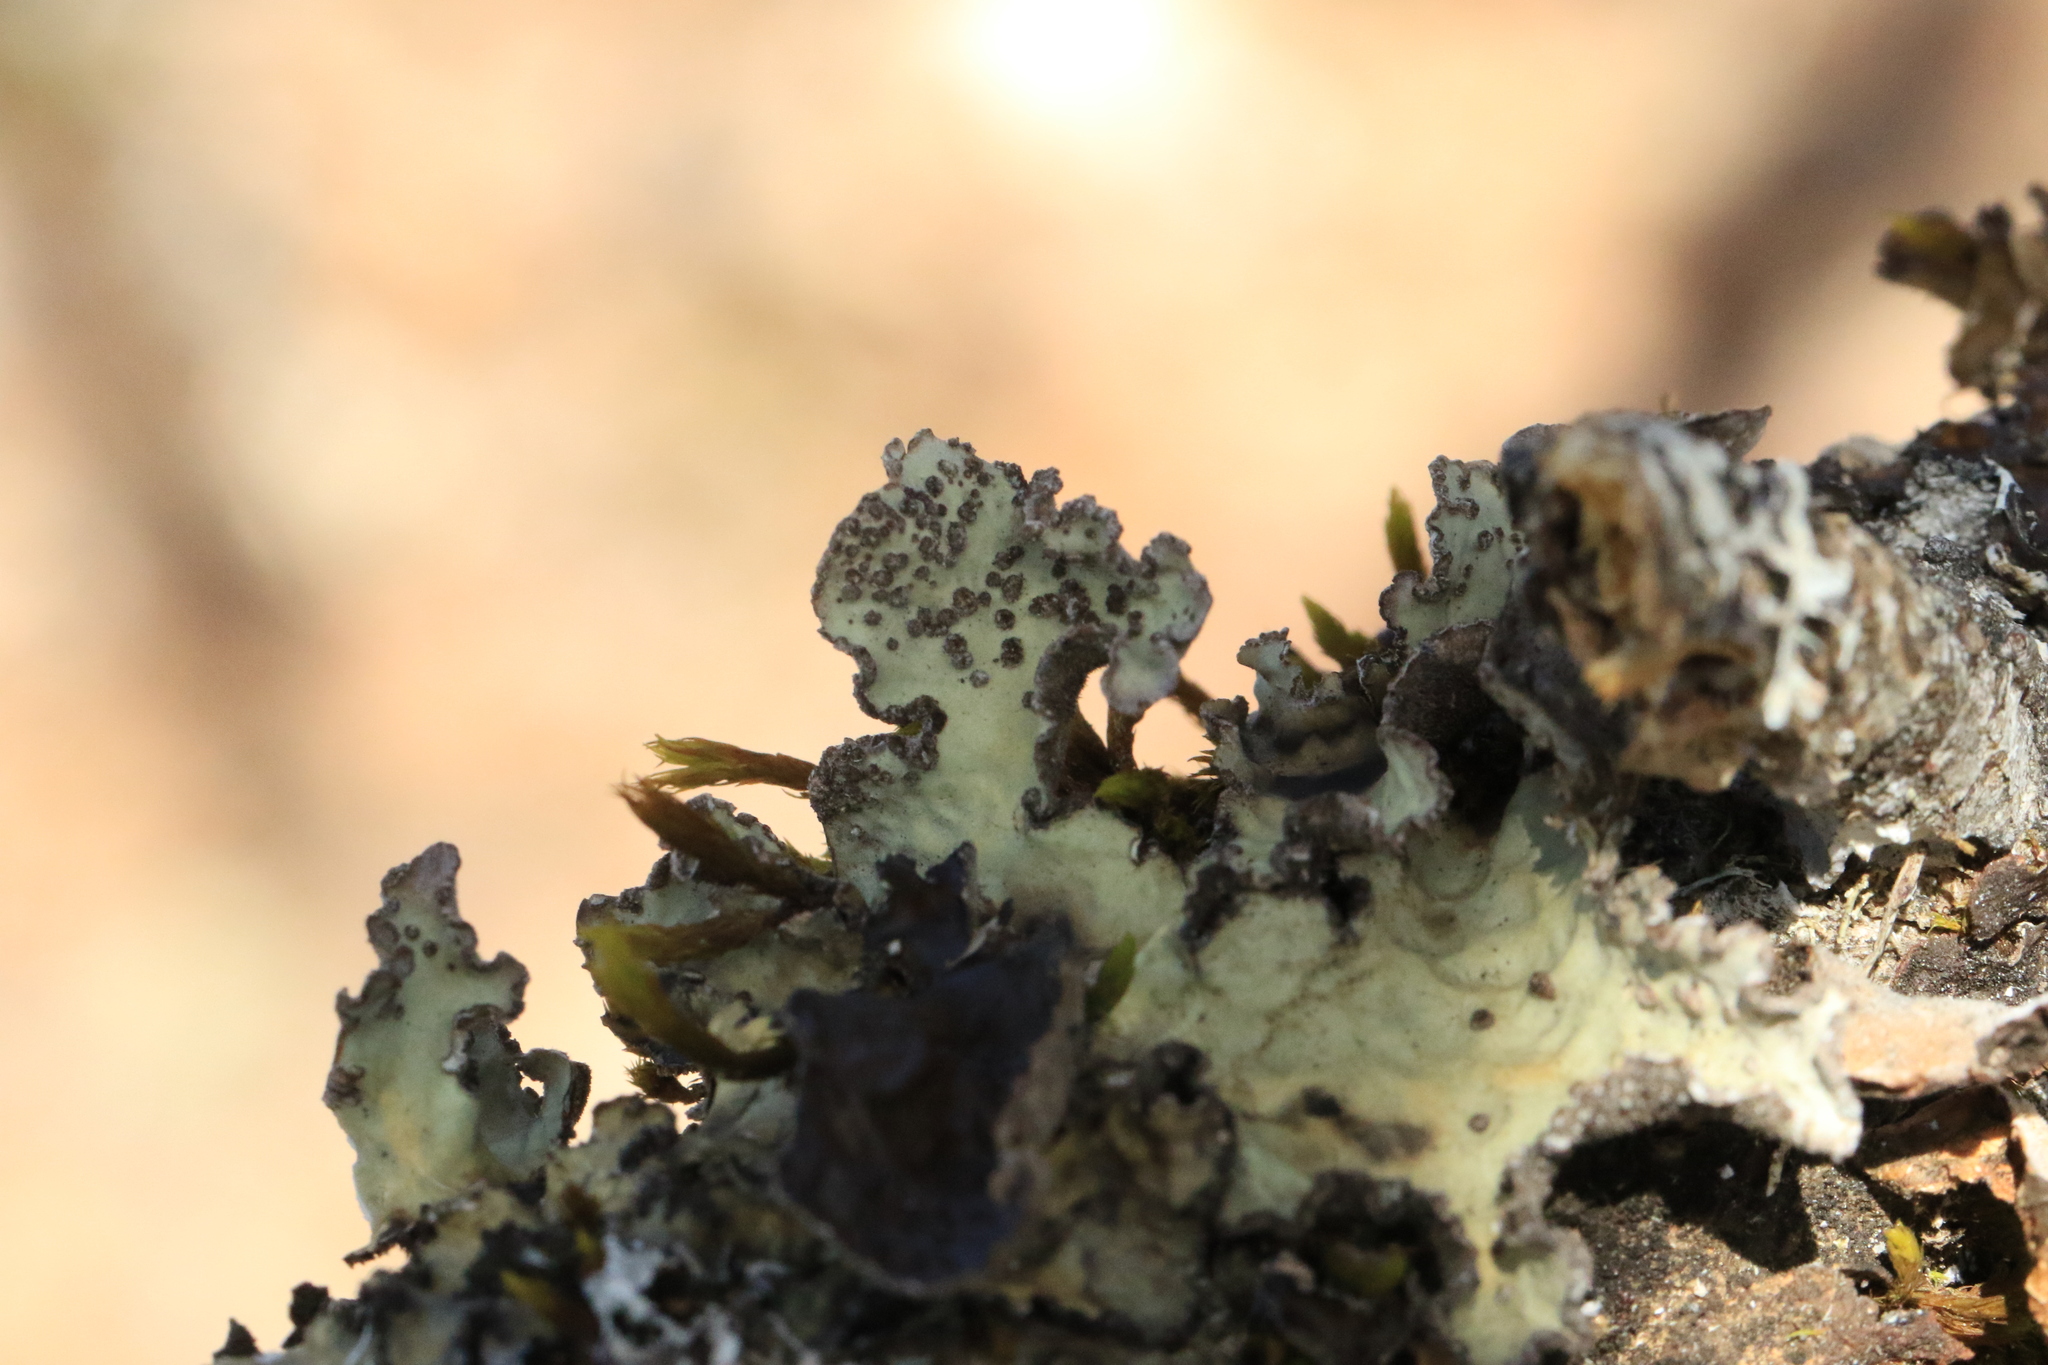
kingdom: Fungi
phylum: Ascomycota
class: Lecanoromycetes
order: Peltigerales
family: Lobariaceae
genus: Lobarina
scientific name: Lobarina scrobiculata
